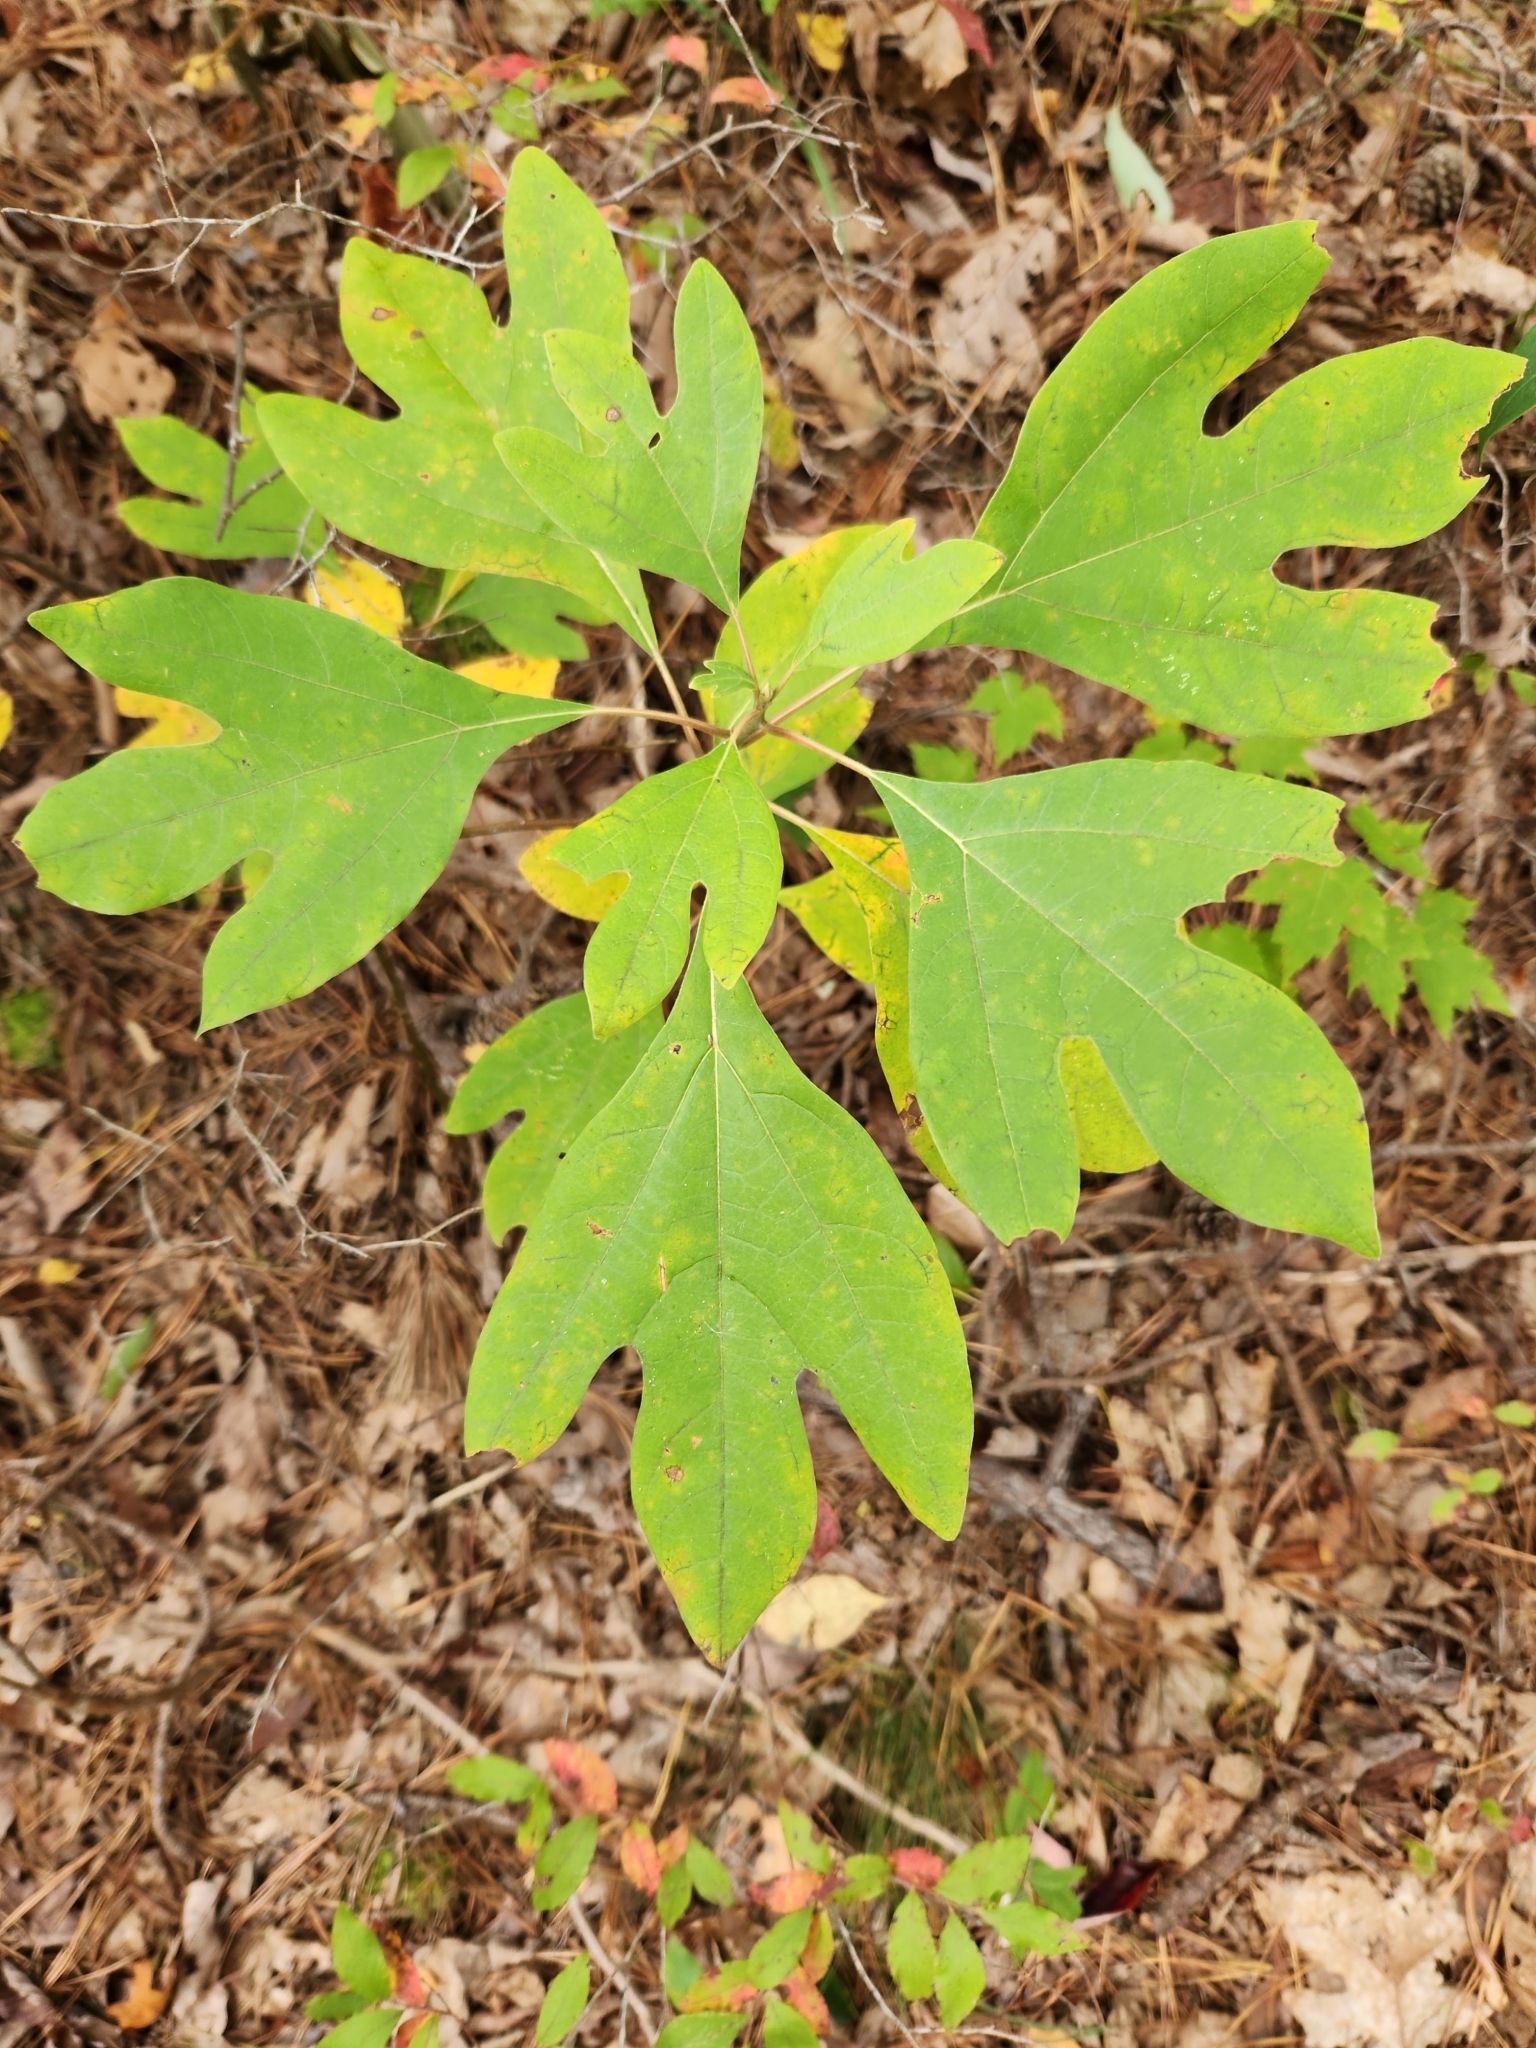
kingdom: Plantae
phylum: Tracheophyta
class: Magnoliopsida
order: Laurales
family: Lauraceae
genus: Sassafras
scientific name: Sassafras albidum
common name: Sassafras
